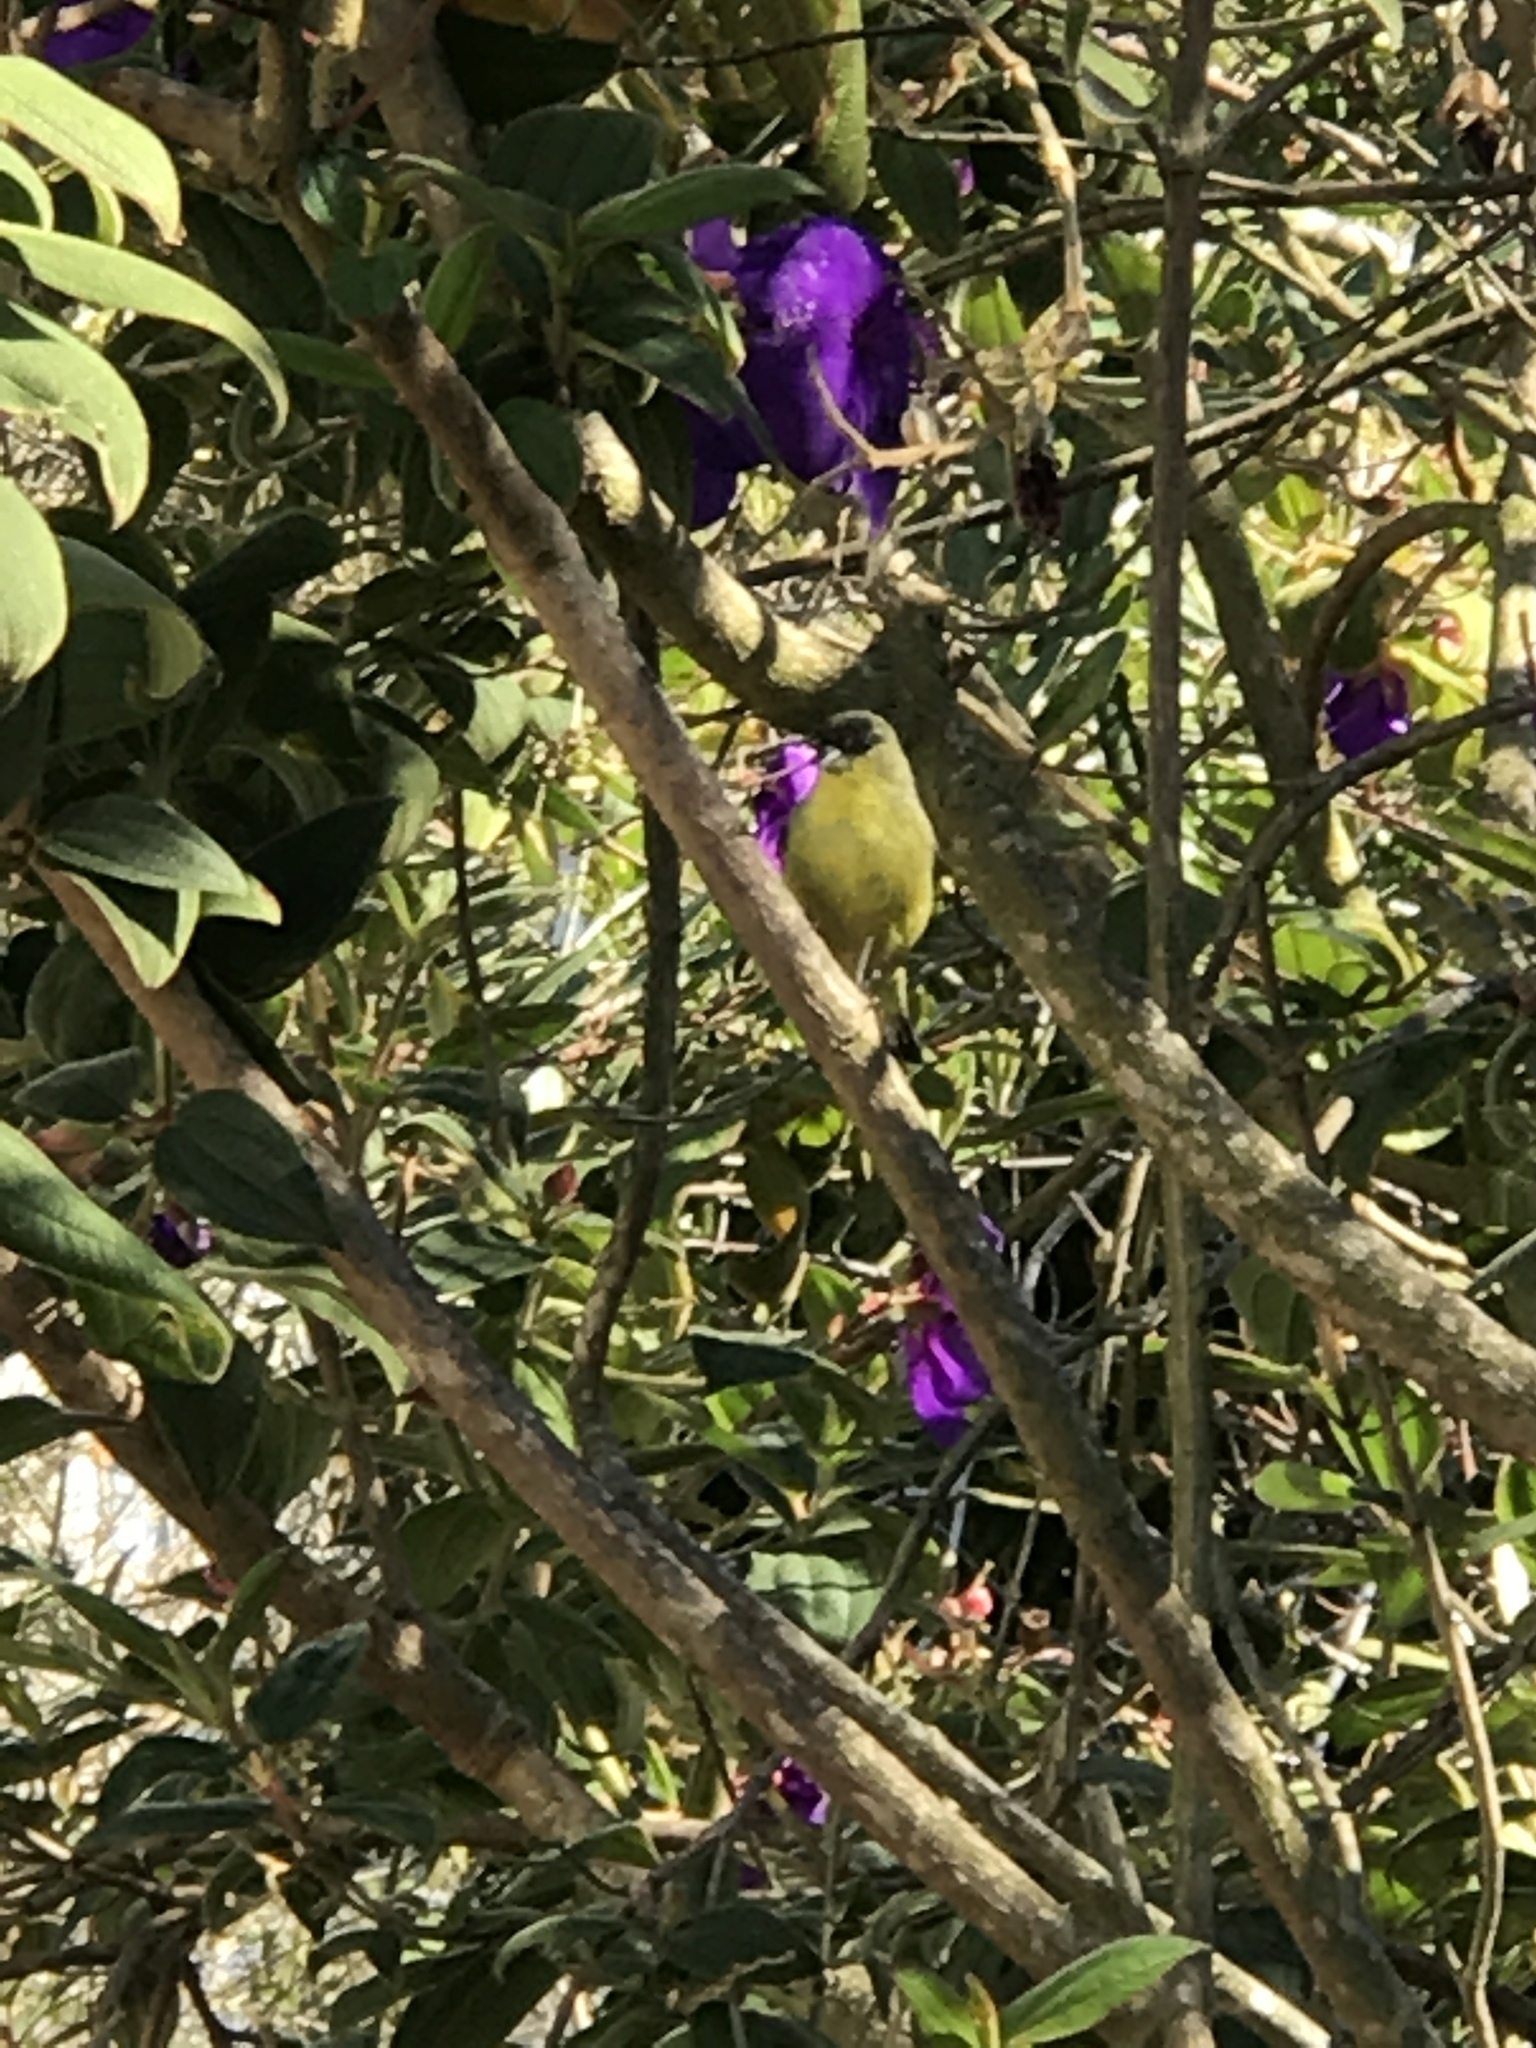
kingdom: Animalia
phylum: Chordata
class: Aves
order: Passeriformes
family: Fringillidae
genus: Spinus
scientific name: Spinus psaltria
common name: Lesser goldfinch
